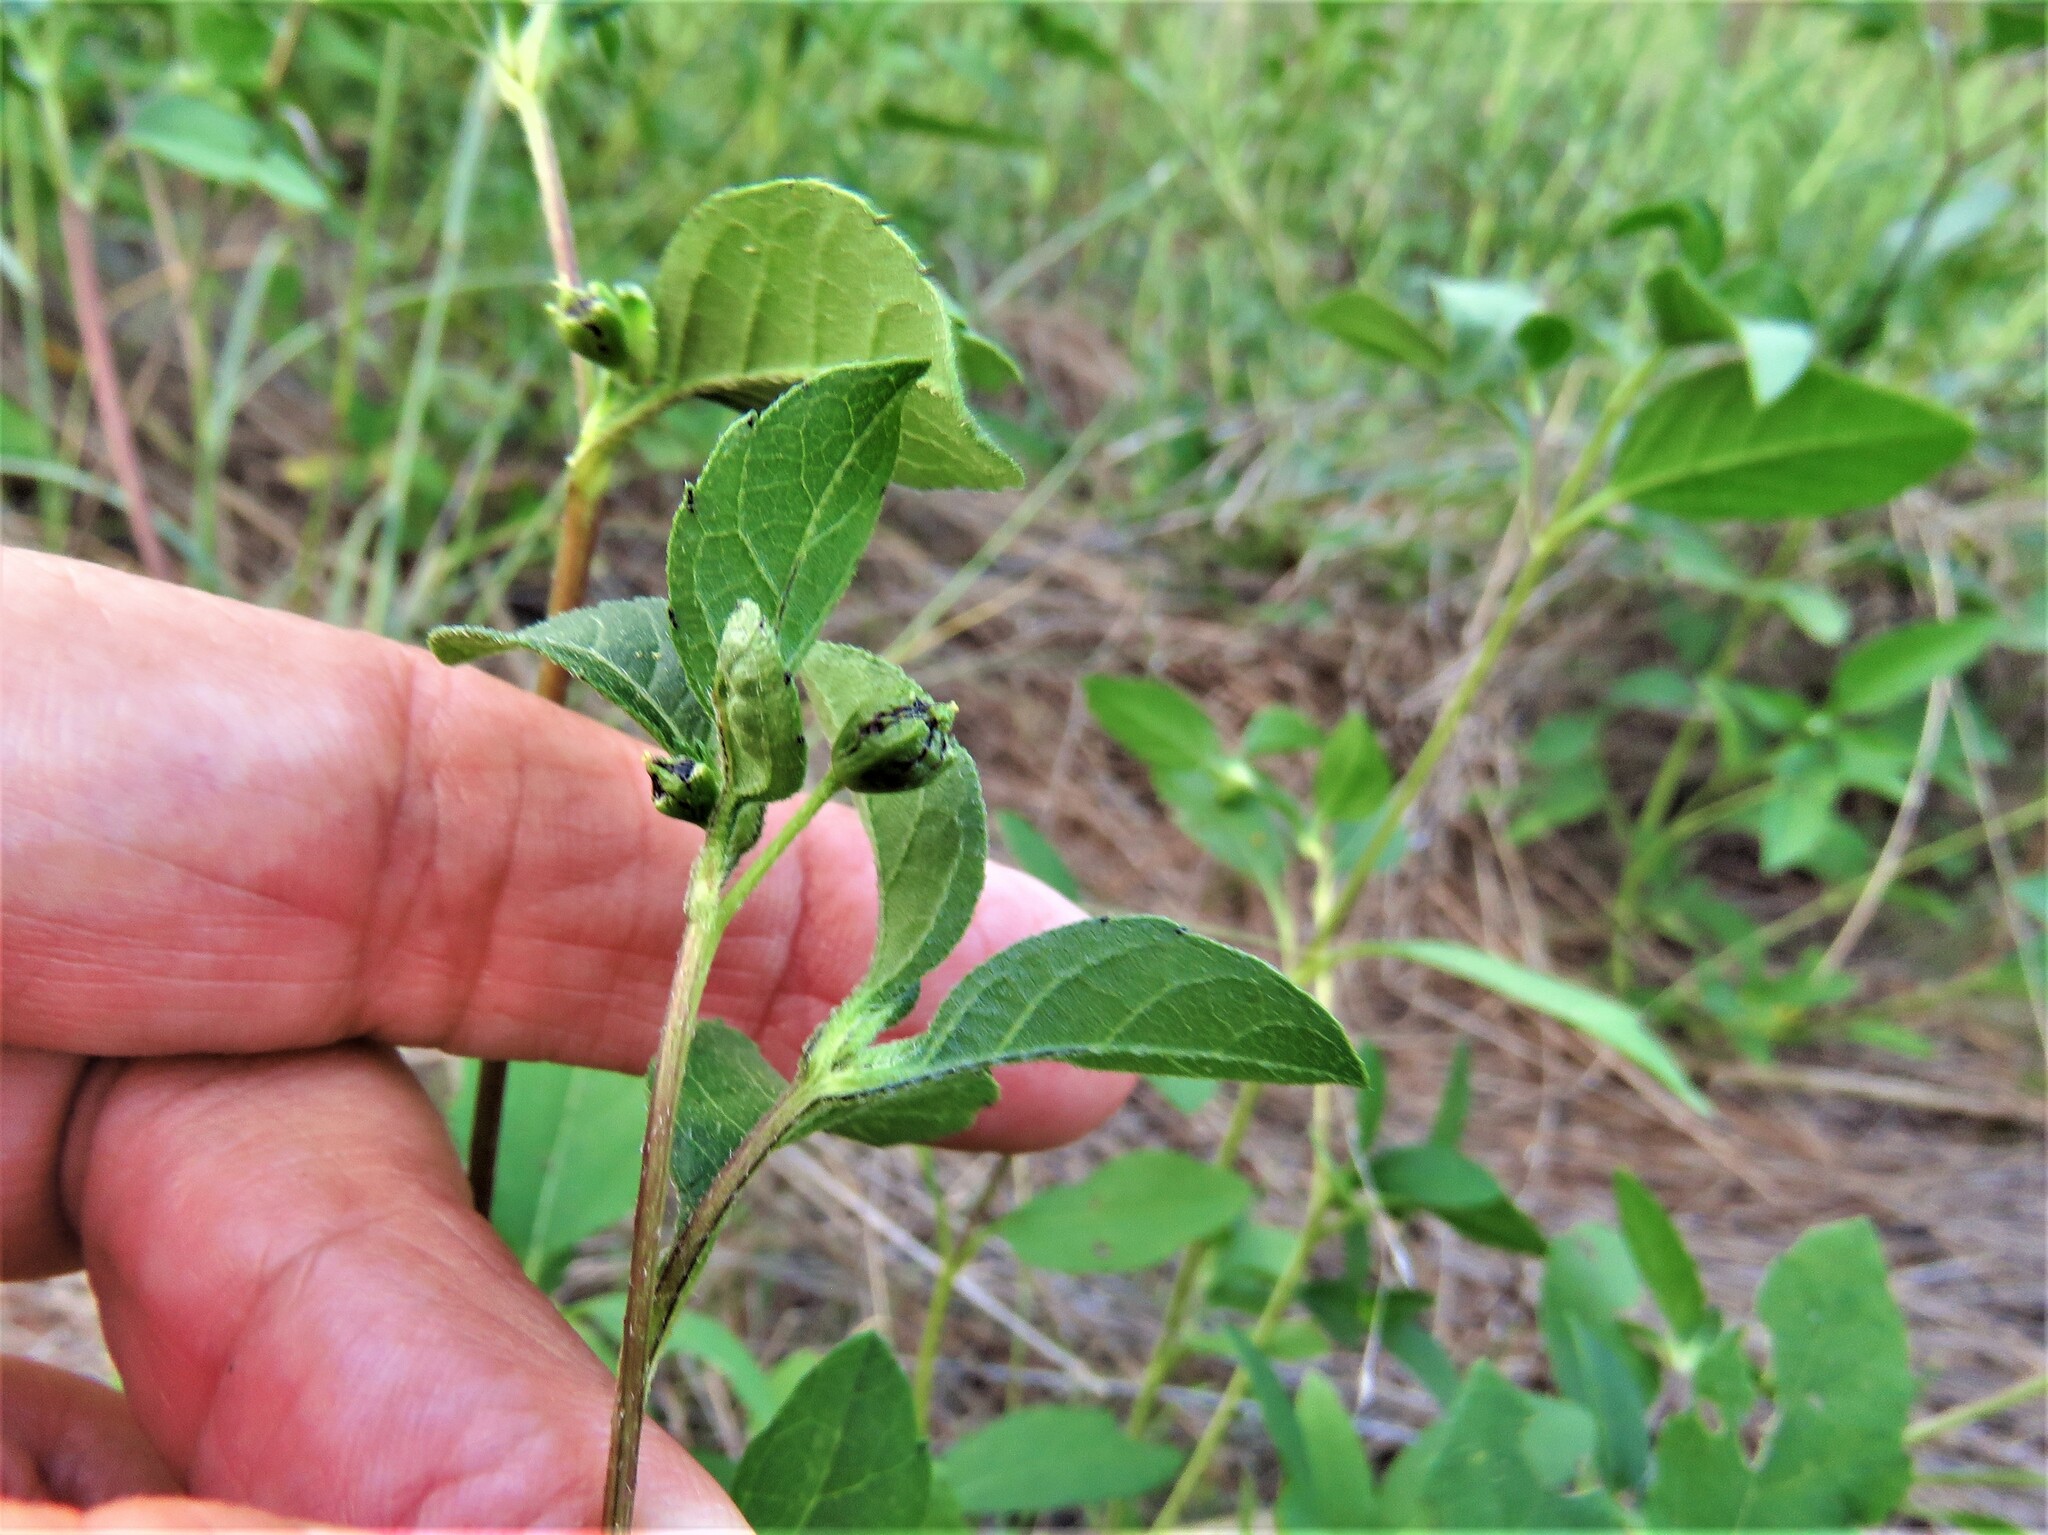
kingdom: Plantae
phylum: Tracheophyta
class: Magnoliopsida
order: Asterales
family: Asteraceae
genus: Ambrosia
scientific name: Ambrosia trifida
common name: Giant ragweed
